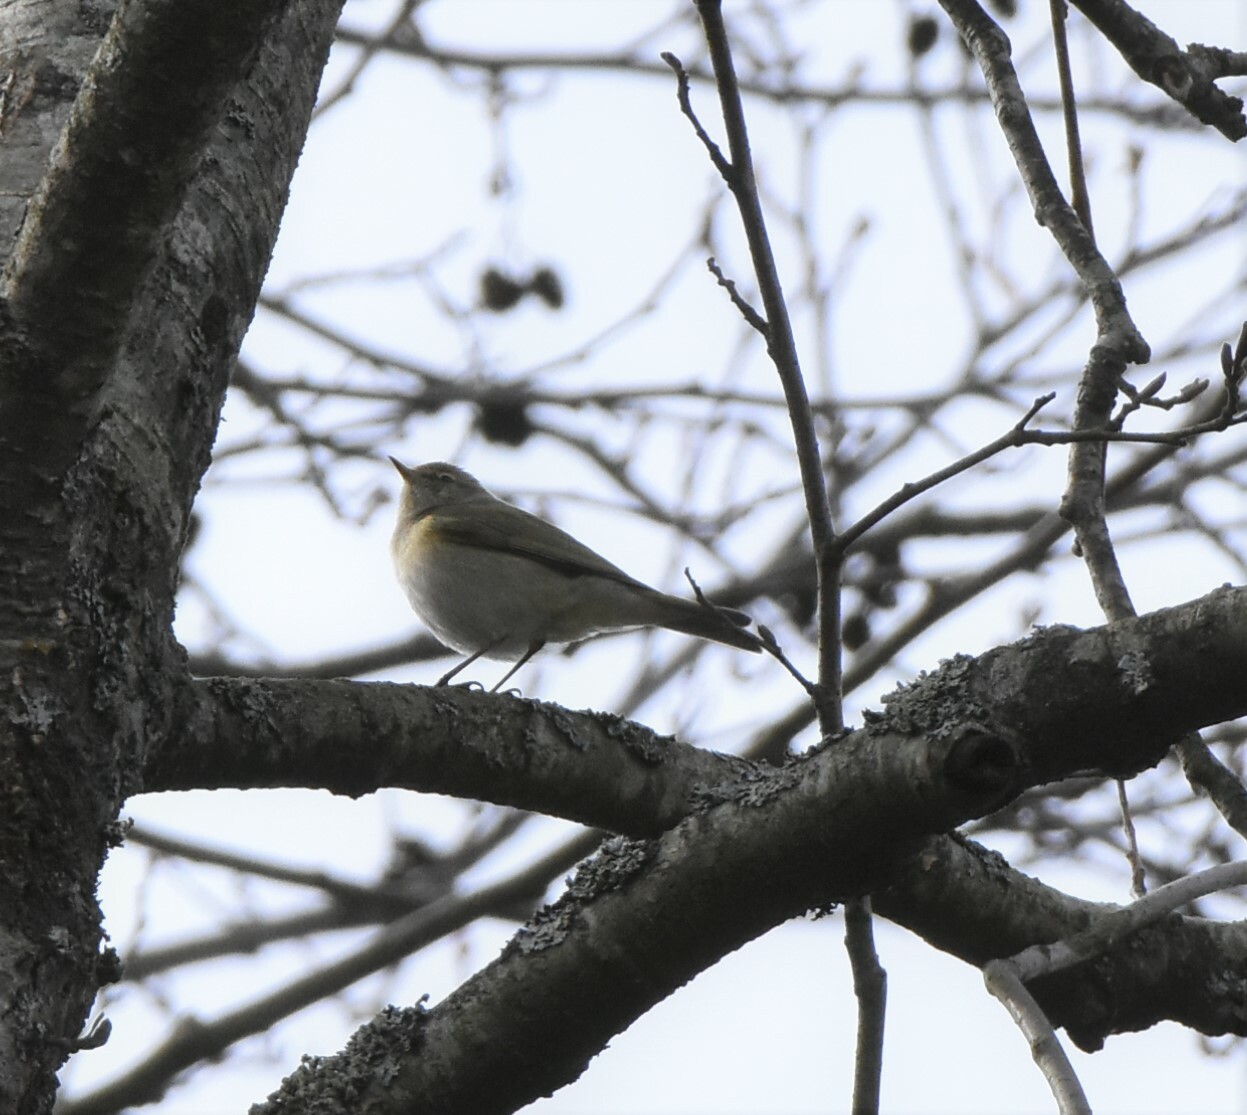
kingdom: Animalia
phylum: Chordata
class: Aves
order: Passeriformes
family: Phylloscopidae
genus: Phylloscopus
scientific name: Phylloscopus collybita
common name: Common chiffchaff
